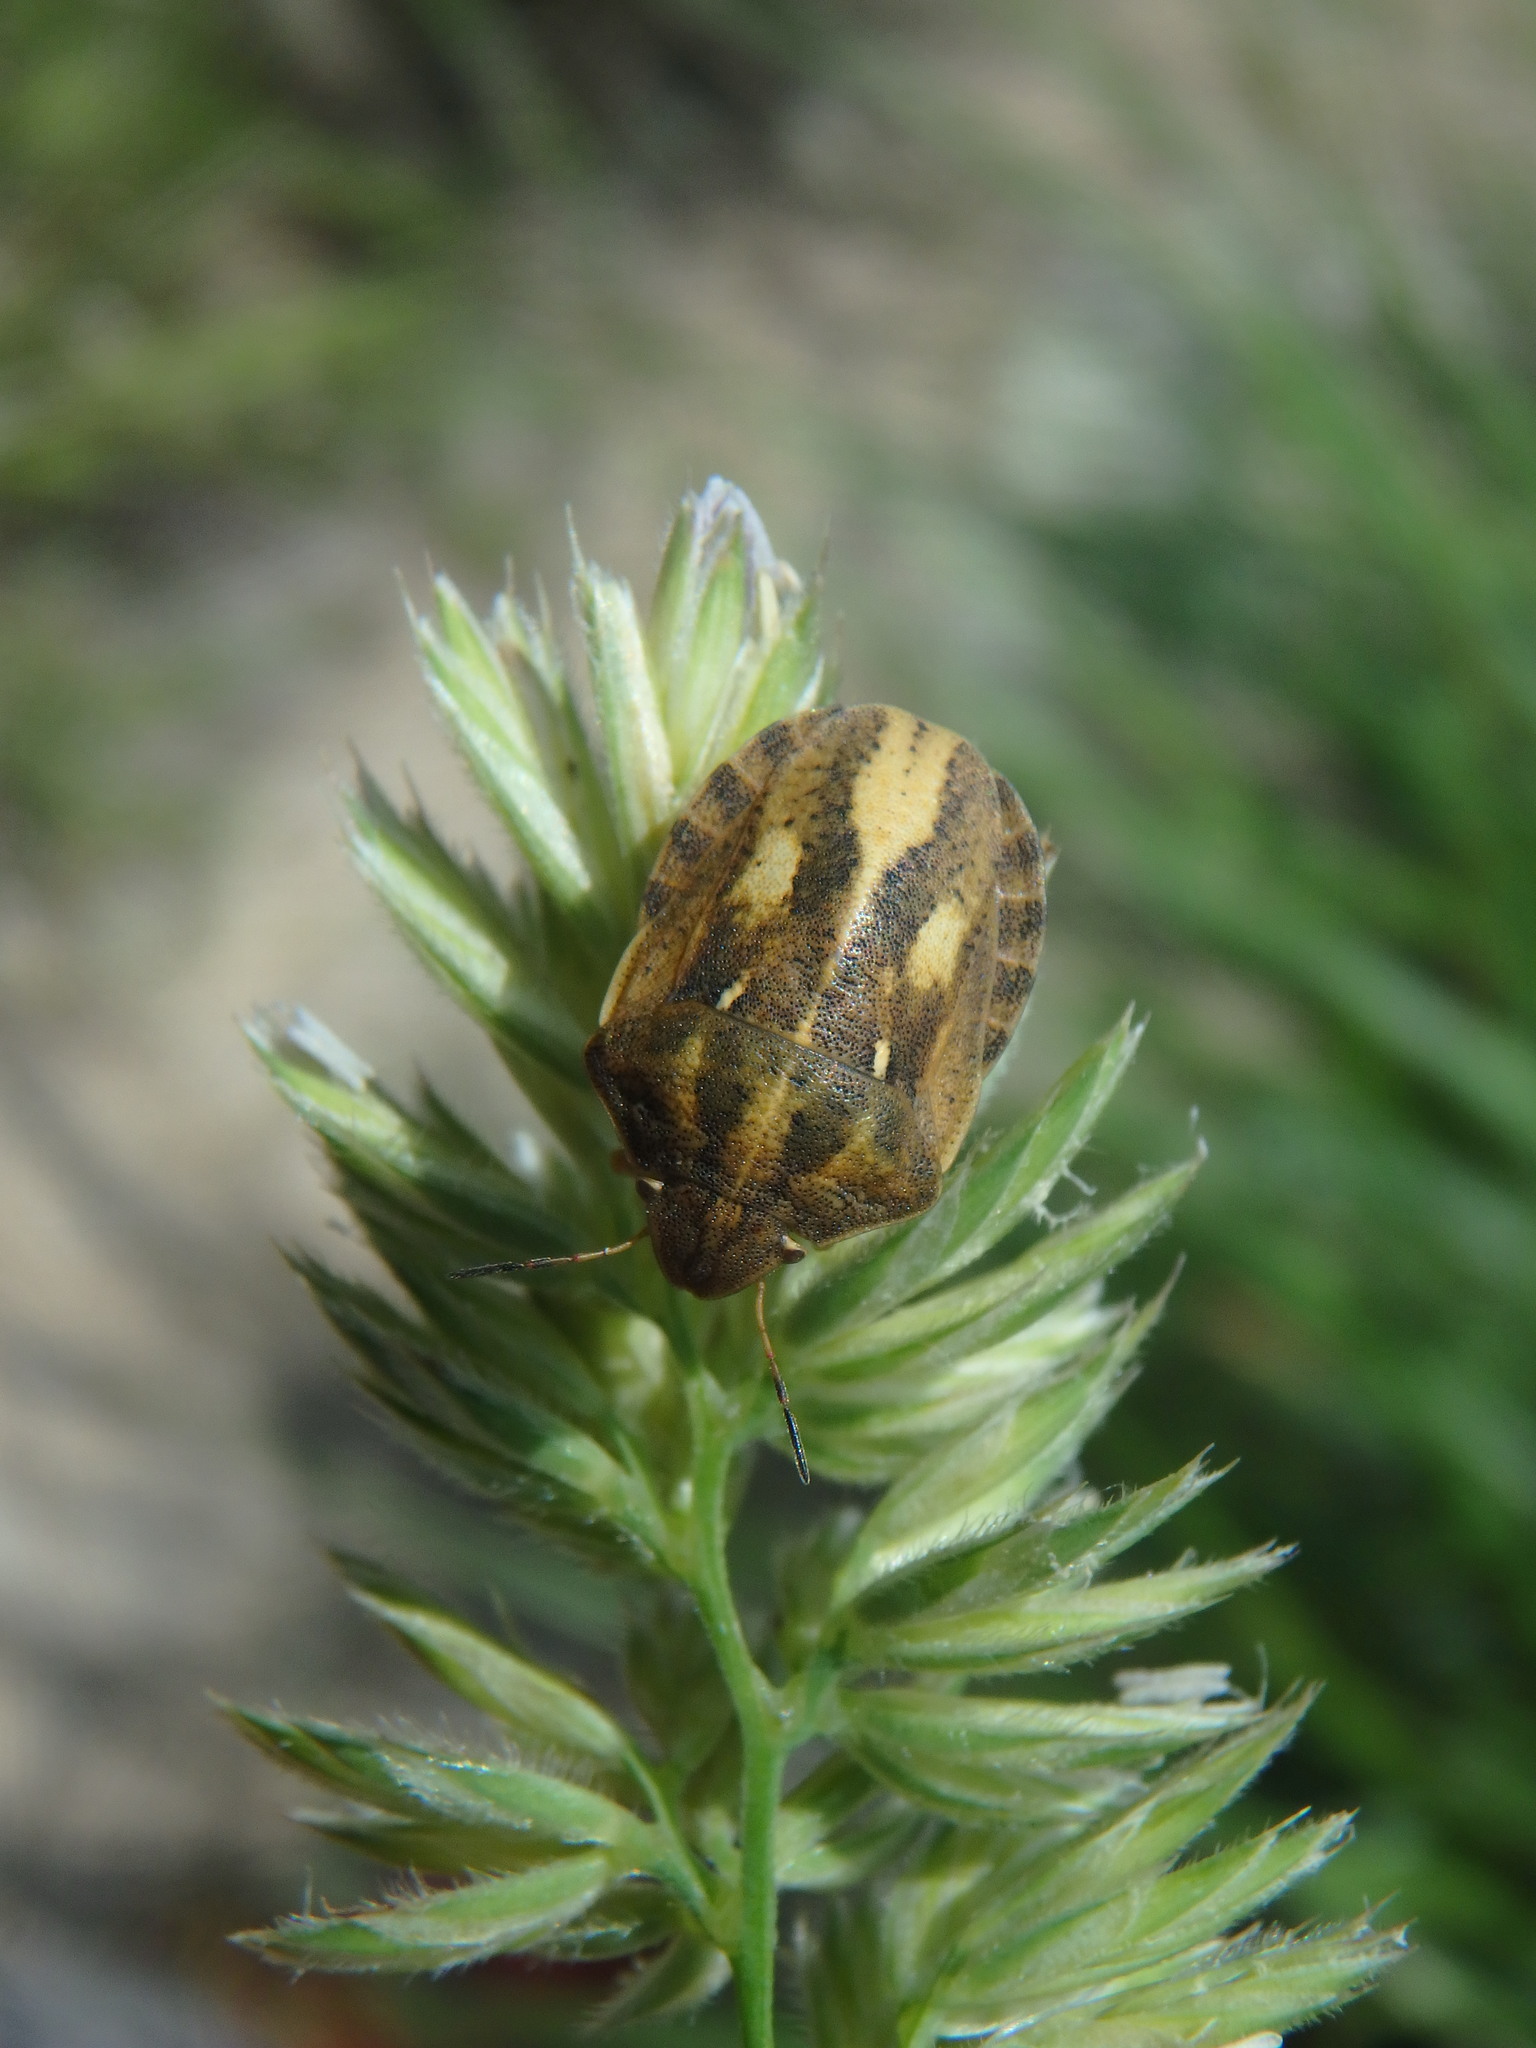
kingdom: Animalia
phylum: Arthropoda
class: Insecta
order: Hemiptera
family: Scutelleridae
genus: Eurygaster
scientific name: Eurygaster maura
